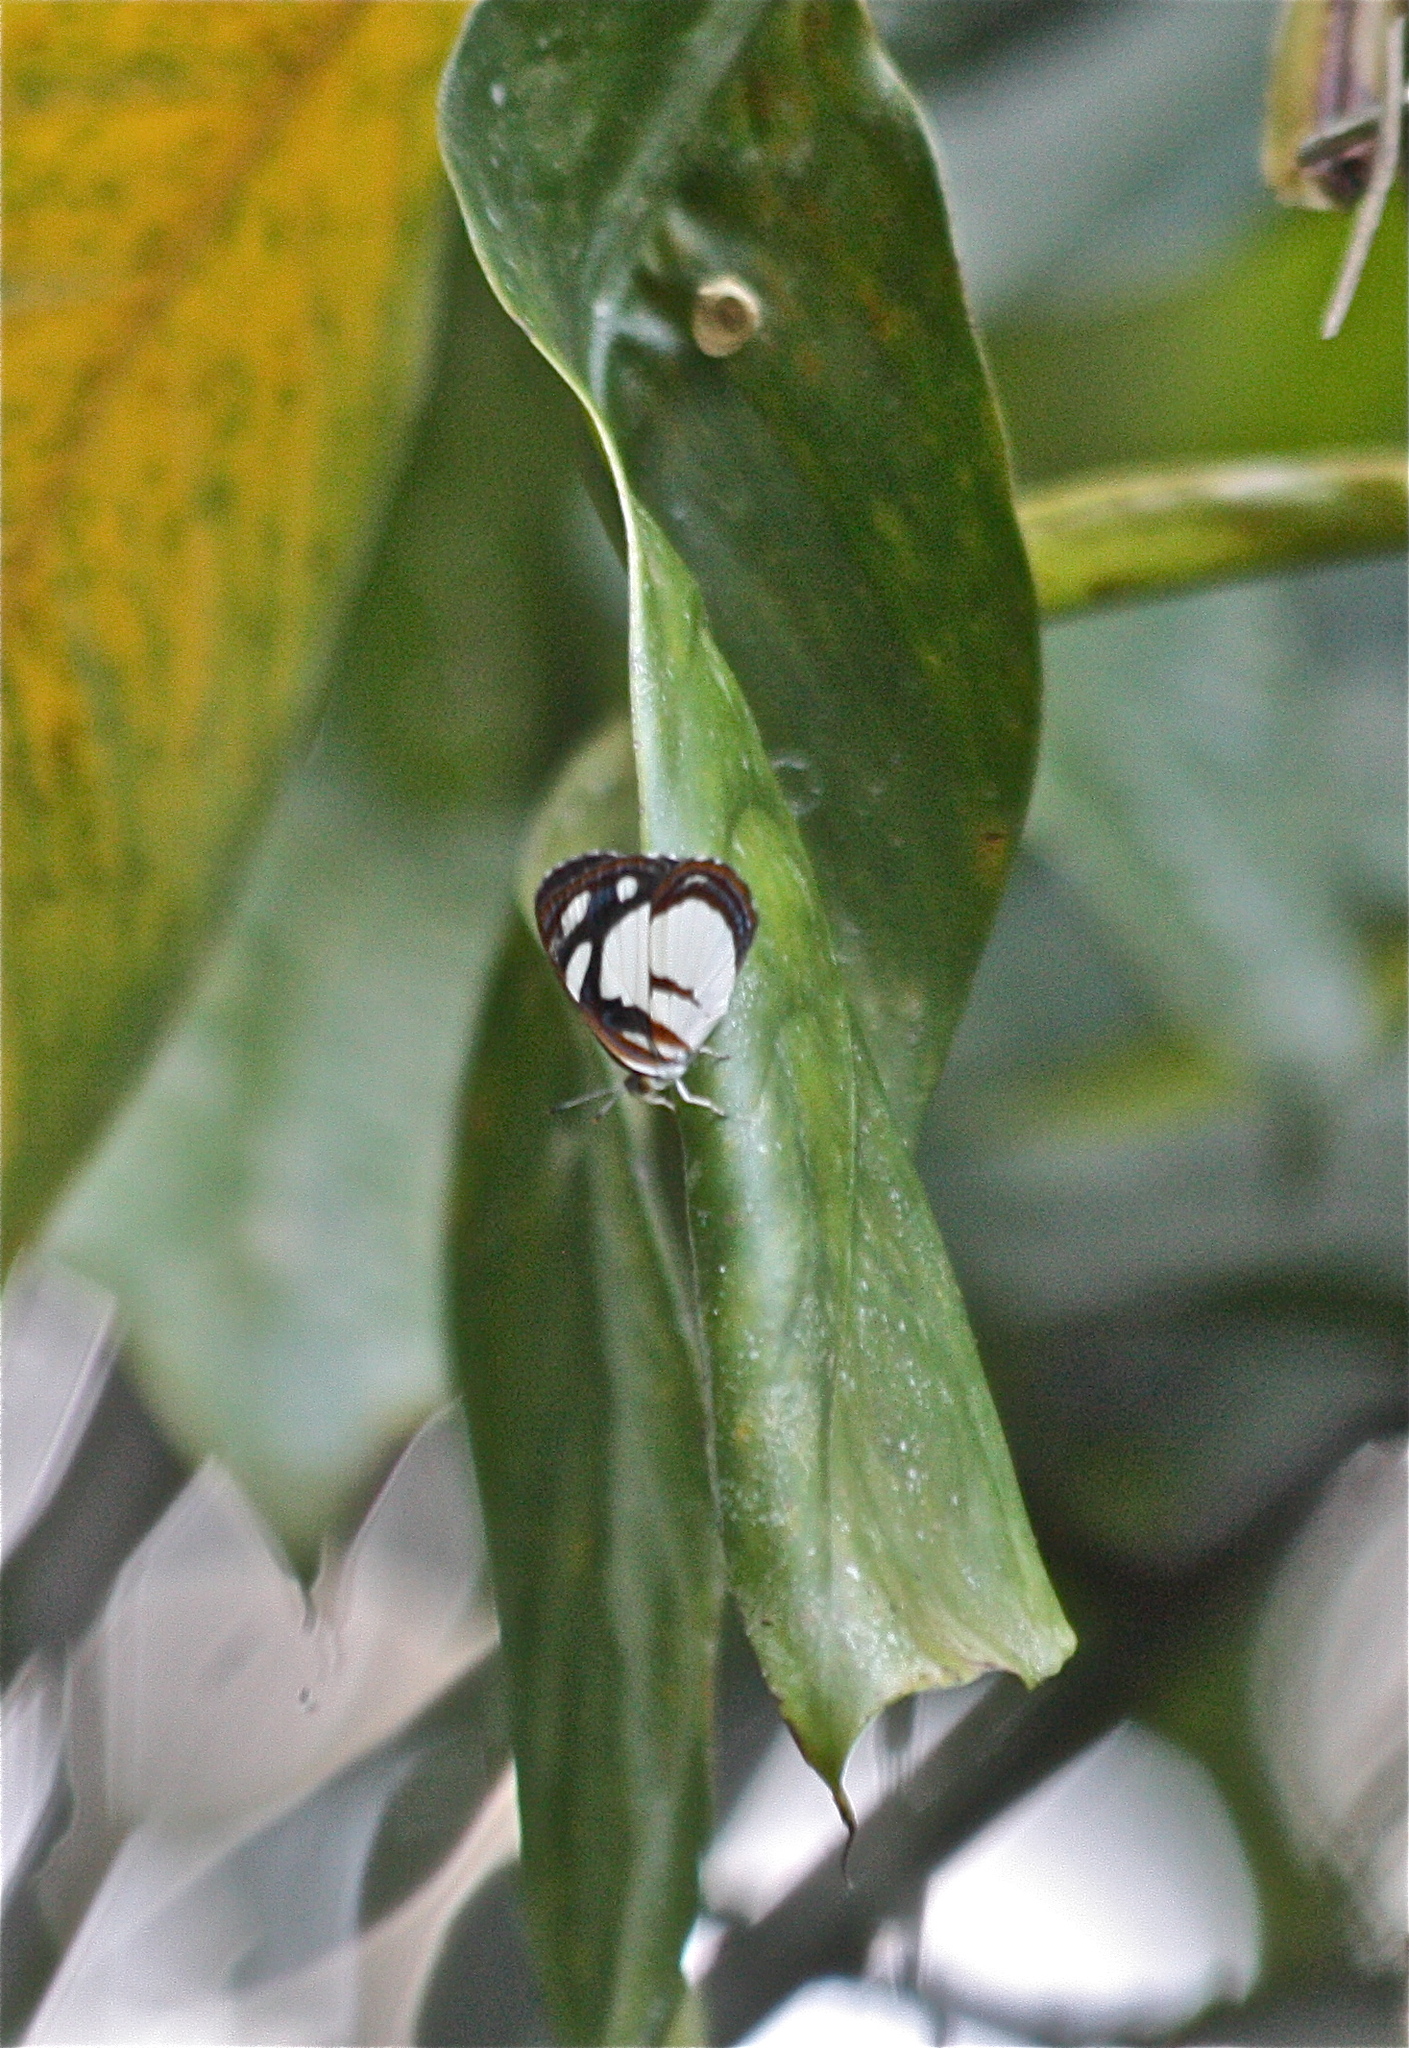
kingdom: Animalia
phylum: Arthropoda
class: Insecta
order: Lepidoptera
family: Nymphalidae
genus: Dynamine
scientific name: Dynamine athemon
